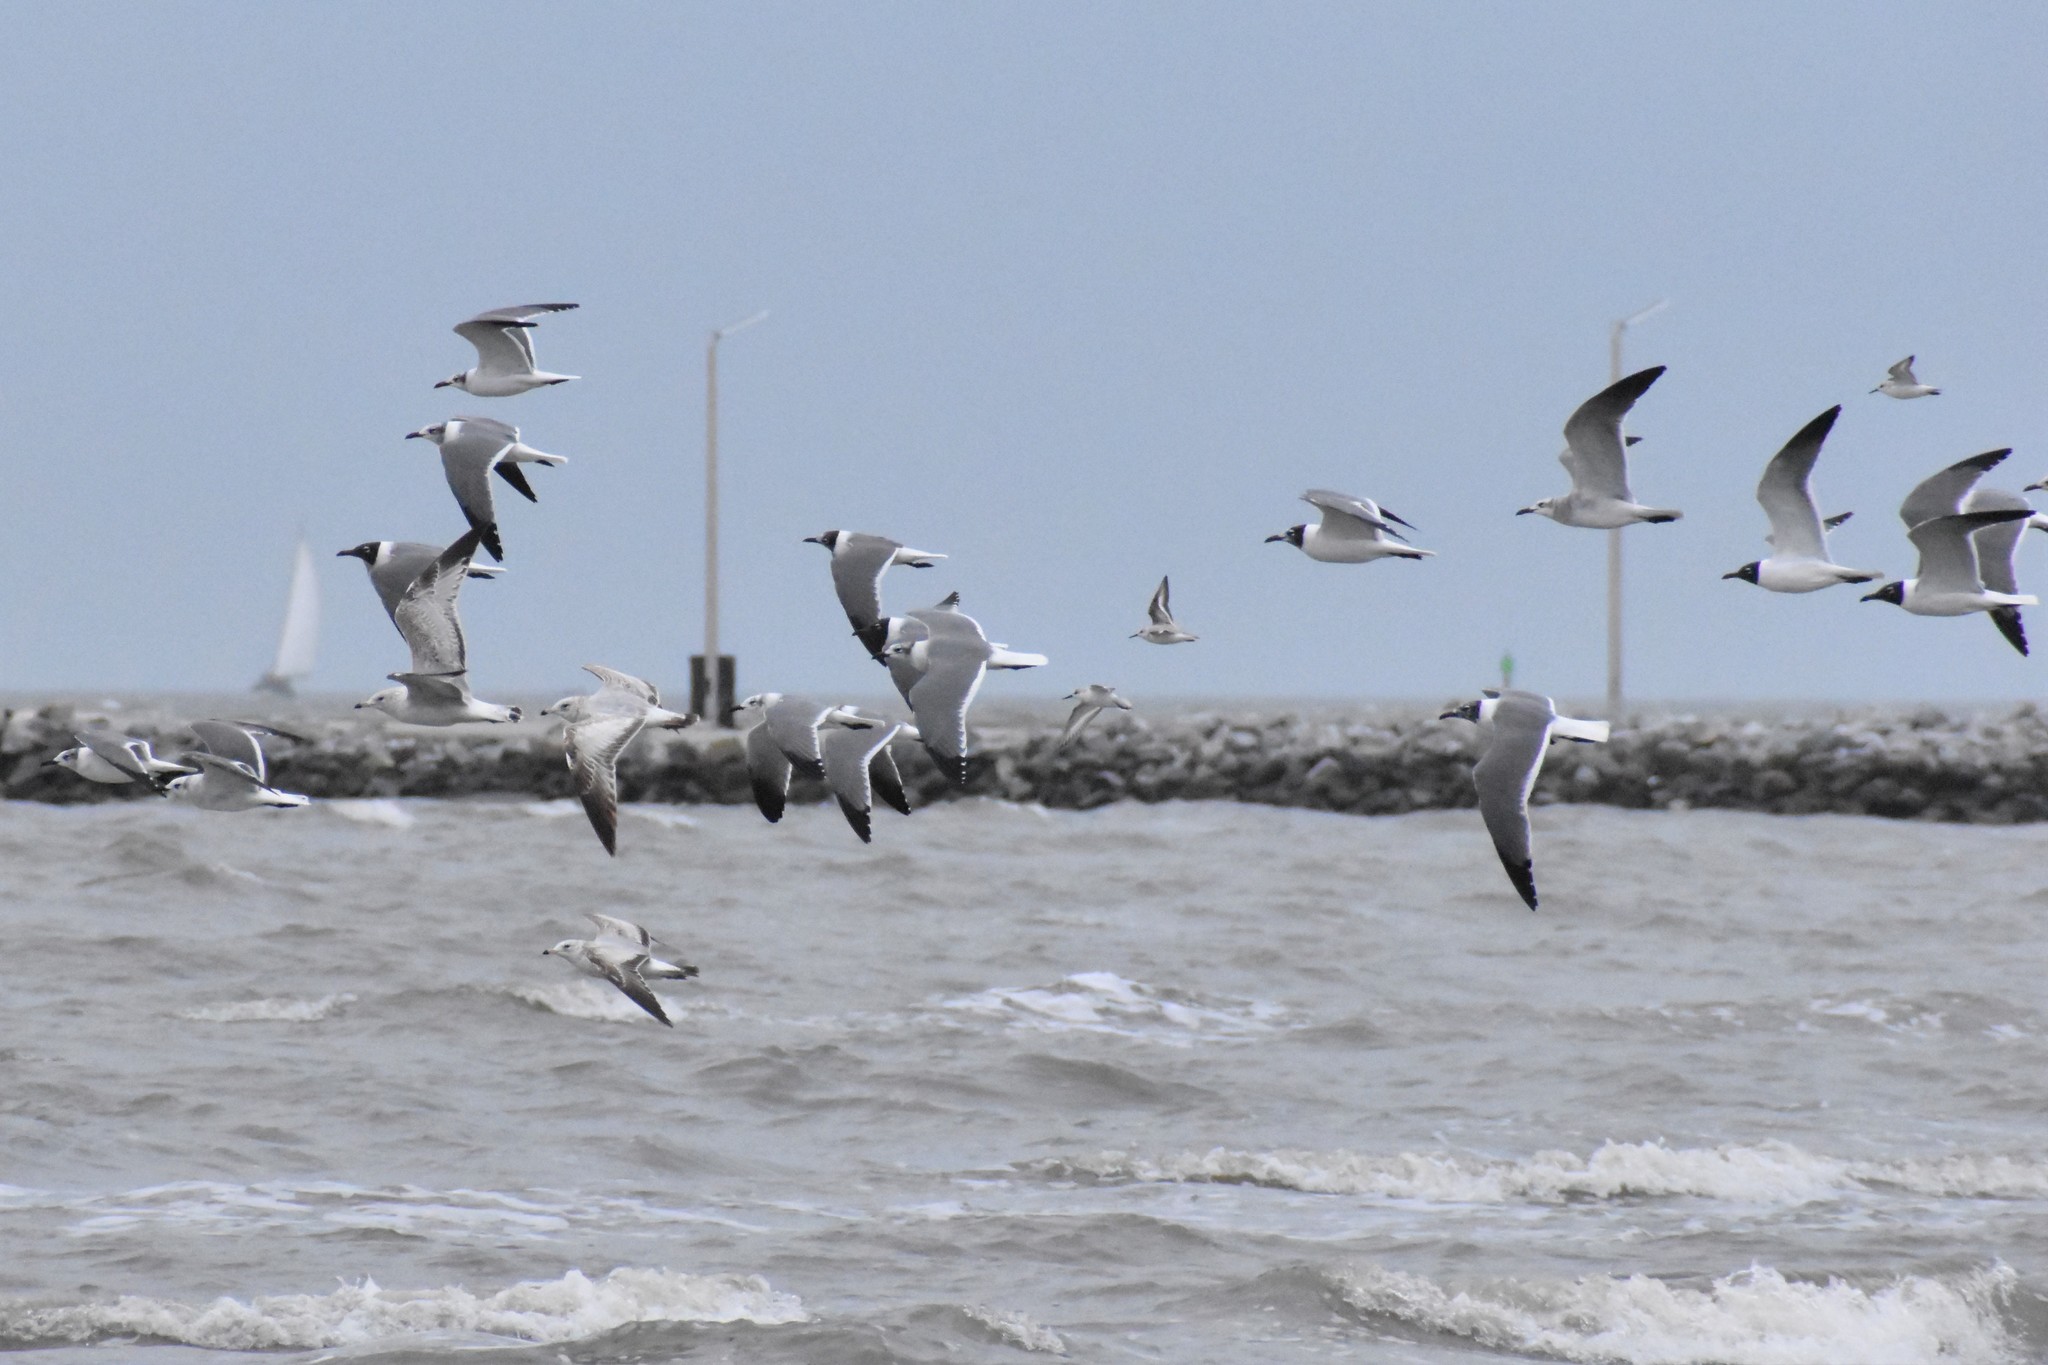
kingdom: Animalia
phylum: Chordata
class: Aves
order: Charadriiformes
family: Laridae
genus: Leucophaeus
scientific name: Leucophaeus atricilla
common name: Laughing gull
